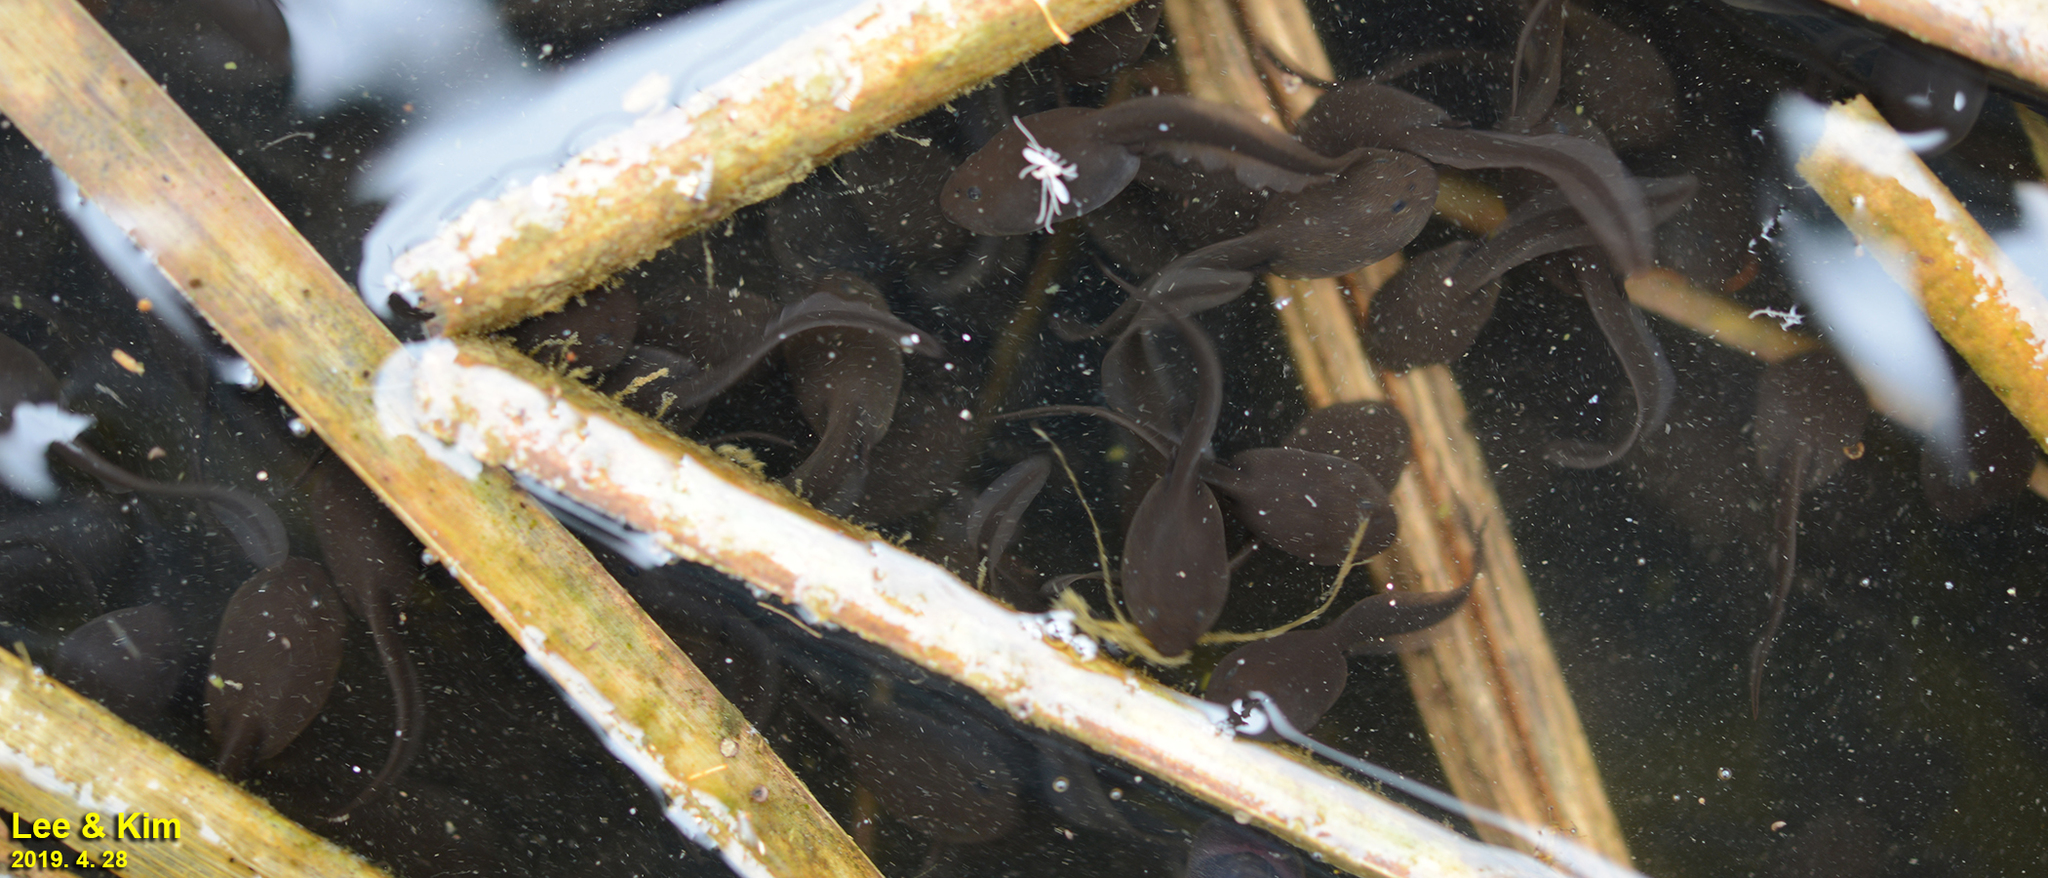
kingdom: Animalia
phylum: Chordata
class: Amphibia
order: Anura
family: Bufonidae
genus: Bufo
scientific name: Bufo gargarizans
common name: Asiatic toad
